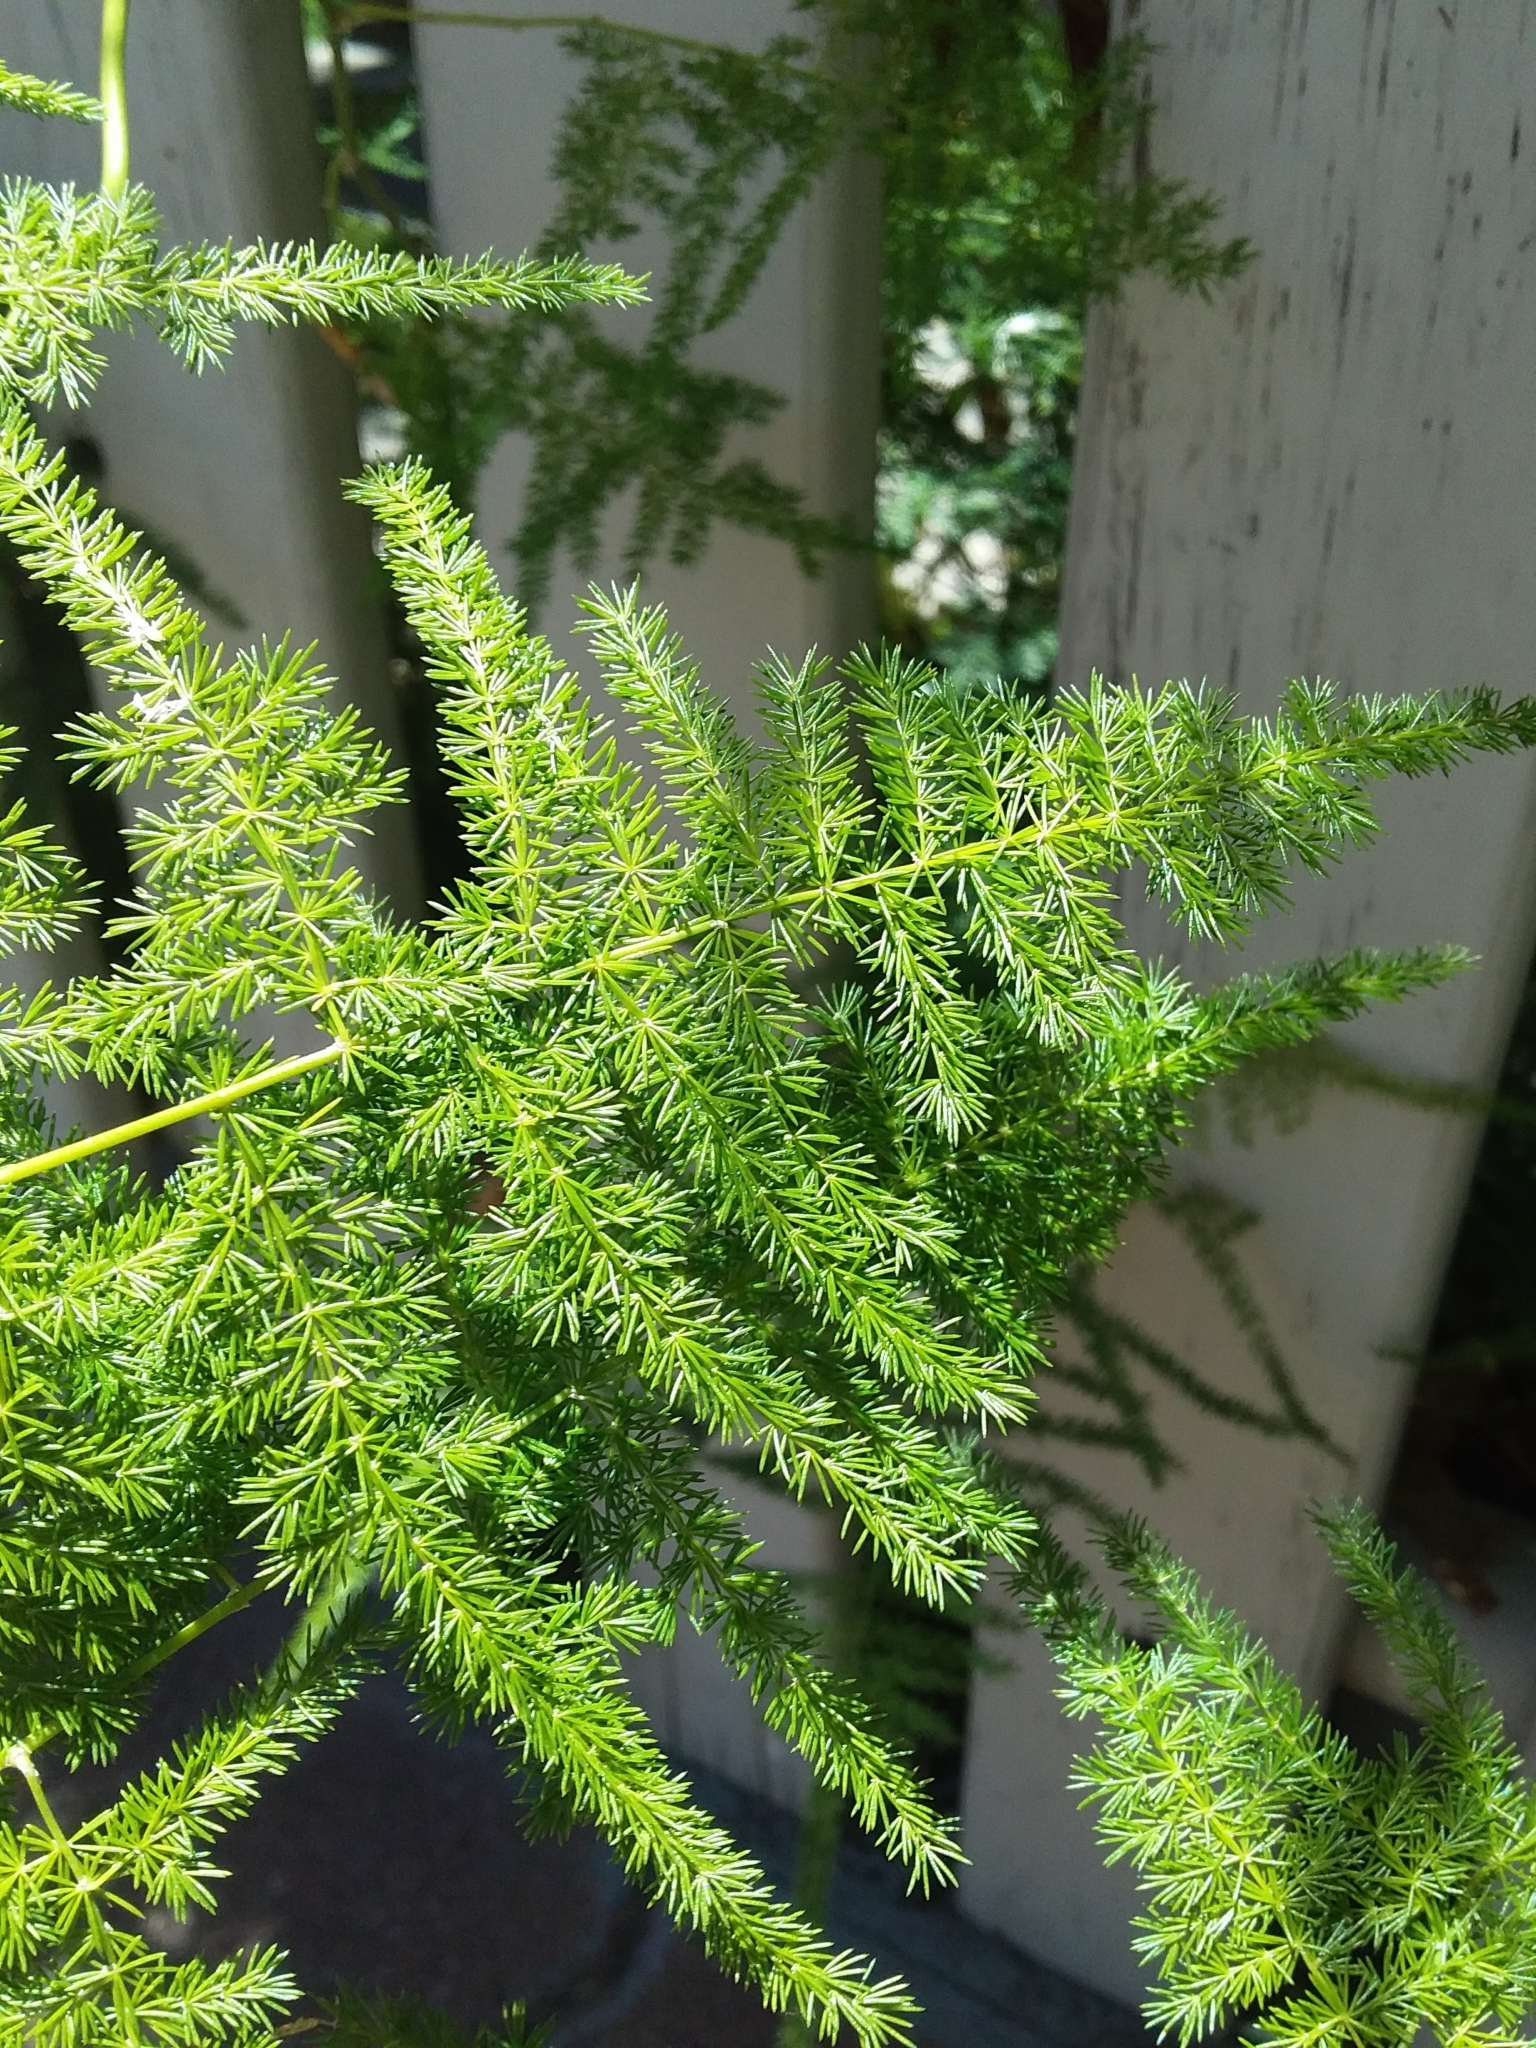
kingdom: Plantae
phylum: Tracheophyta
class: Liliopsida
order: Asparagales
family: Asparagaceae
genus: Asparagus
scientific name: Asparagus setaceus
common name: Common asparagus fern
